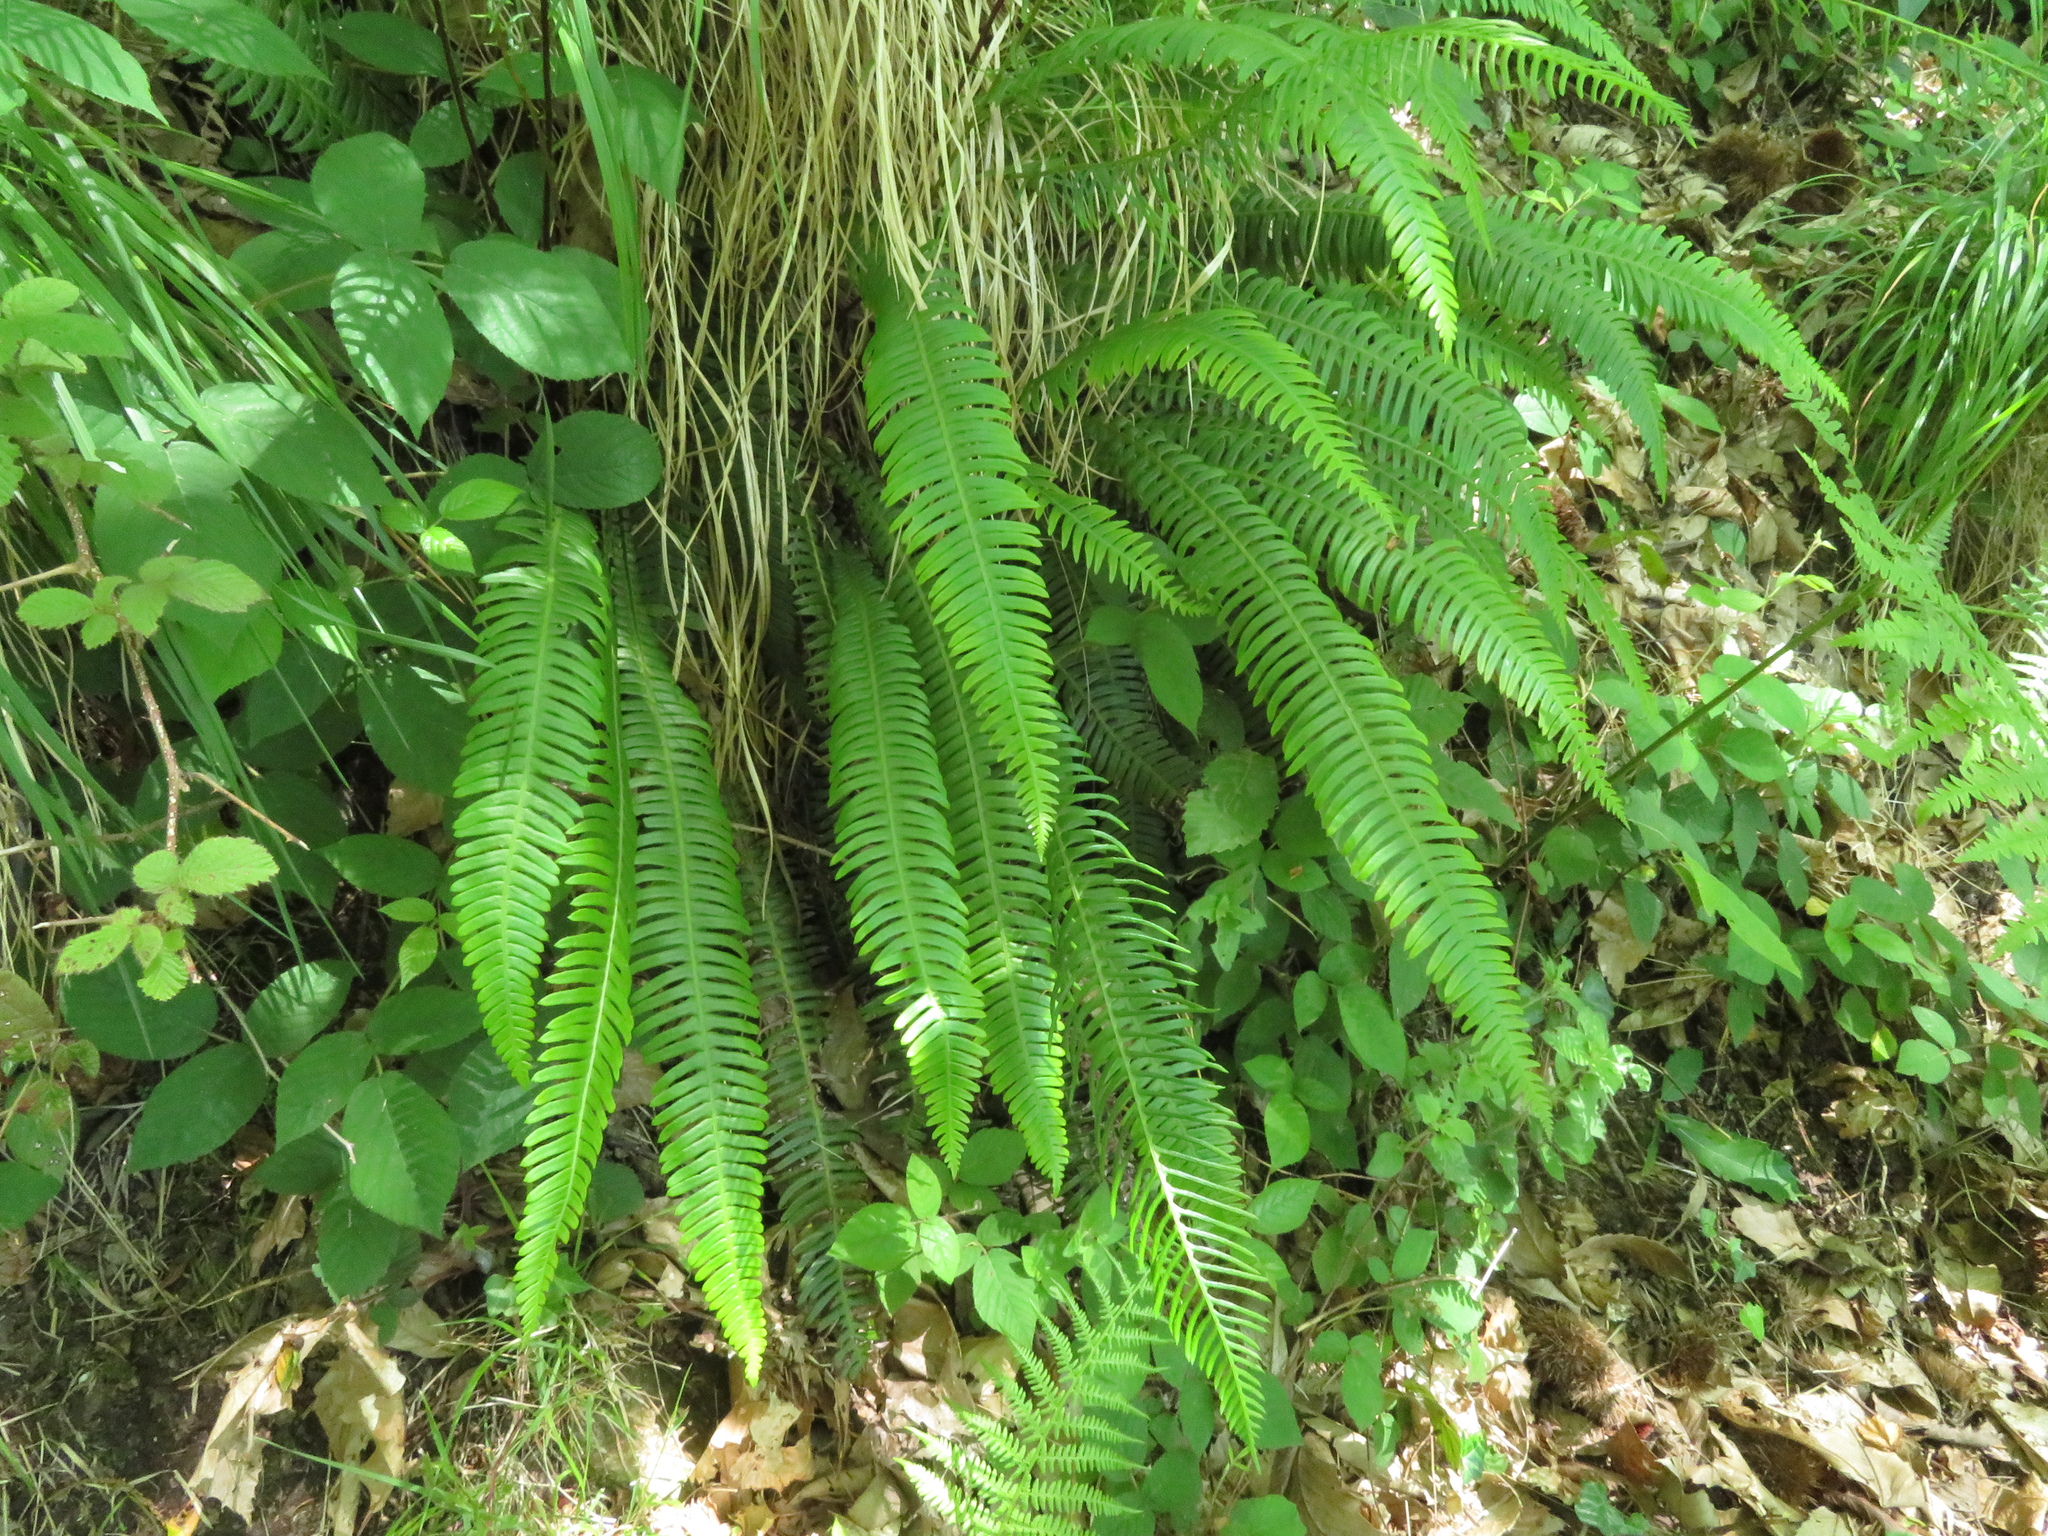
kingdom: Plantae
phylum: Tracheophyta
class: Polypodiopsida
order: Polypodiales
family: Blechnaceae
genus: Struthiopteris
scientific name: Struthiopteris spicant
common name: Deer fern
